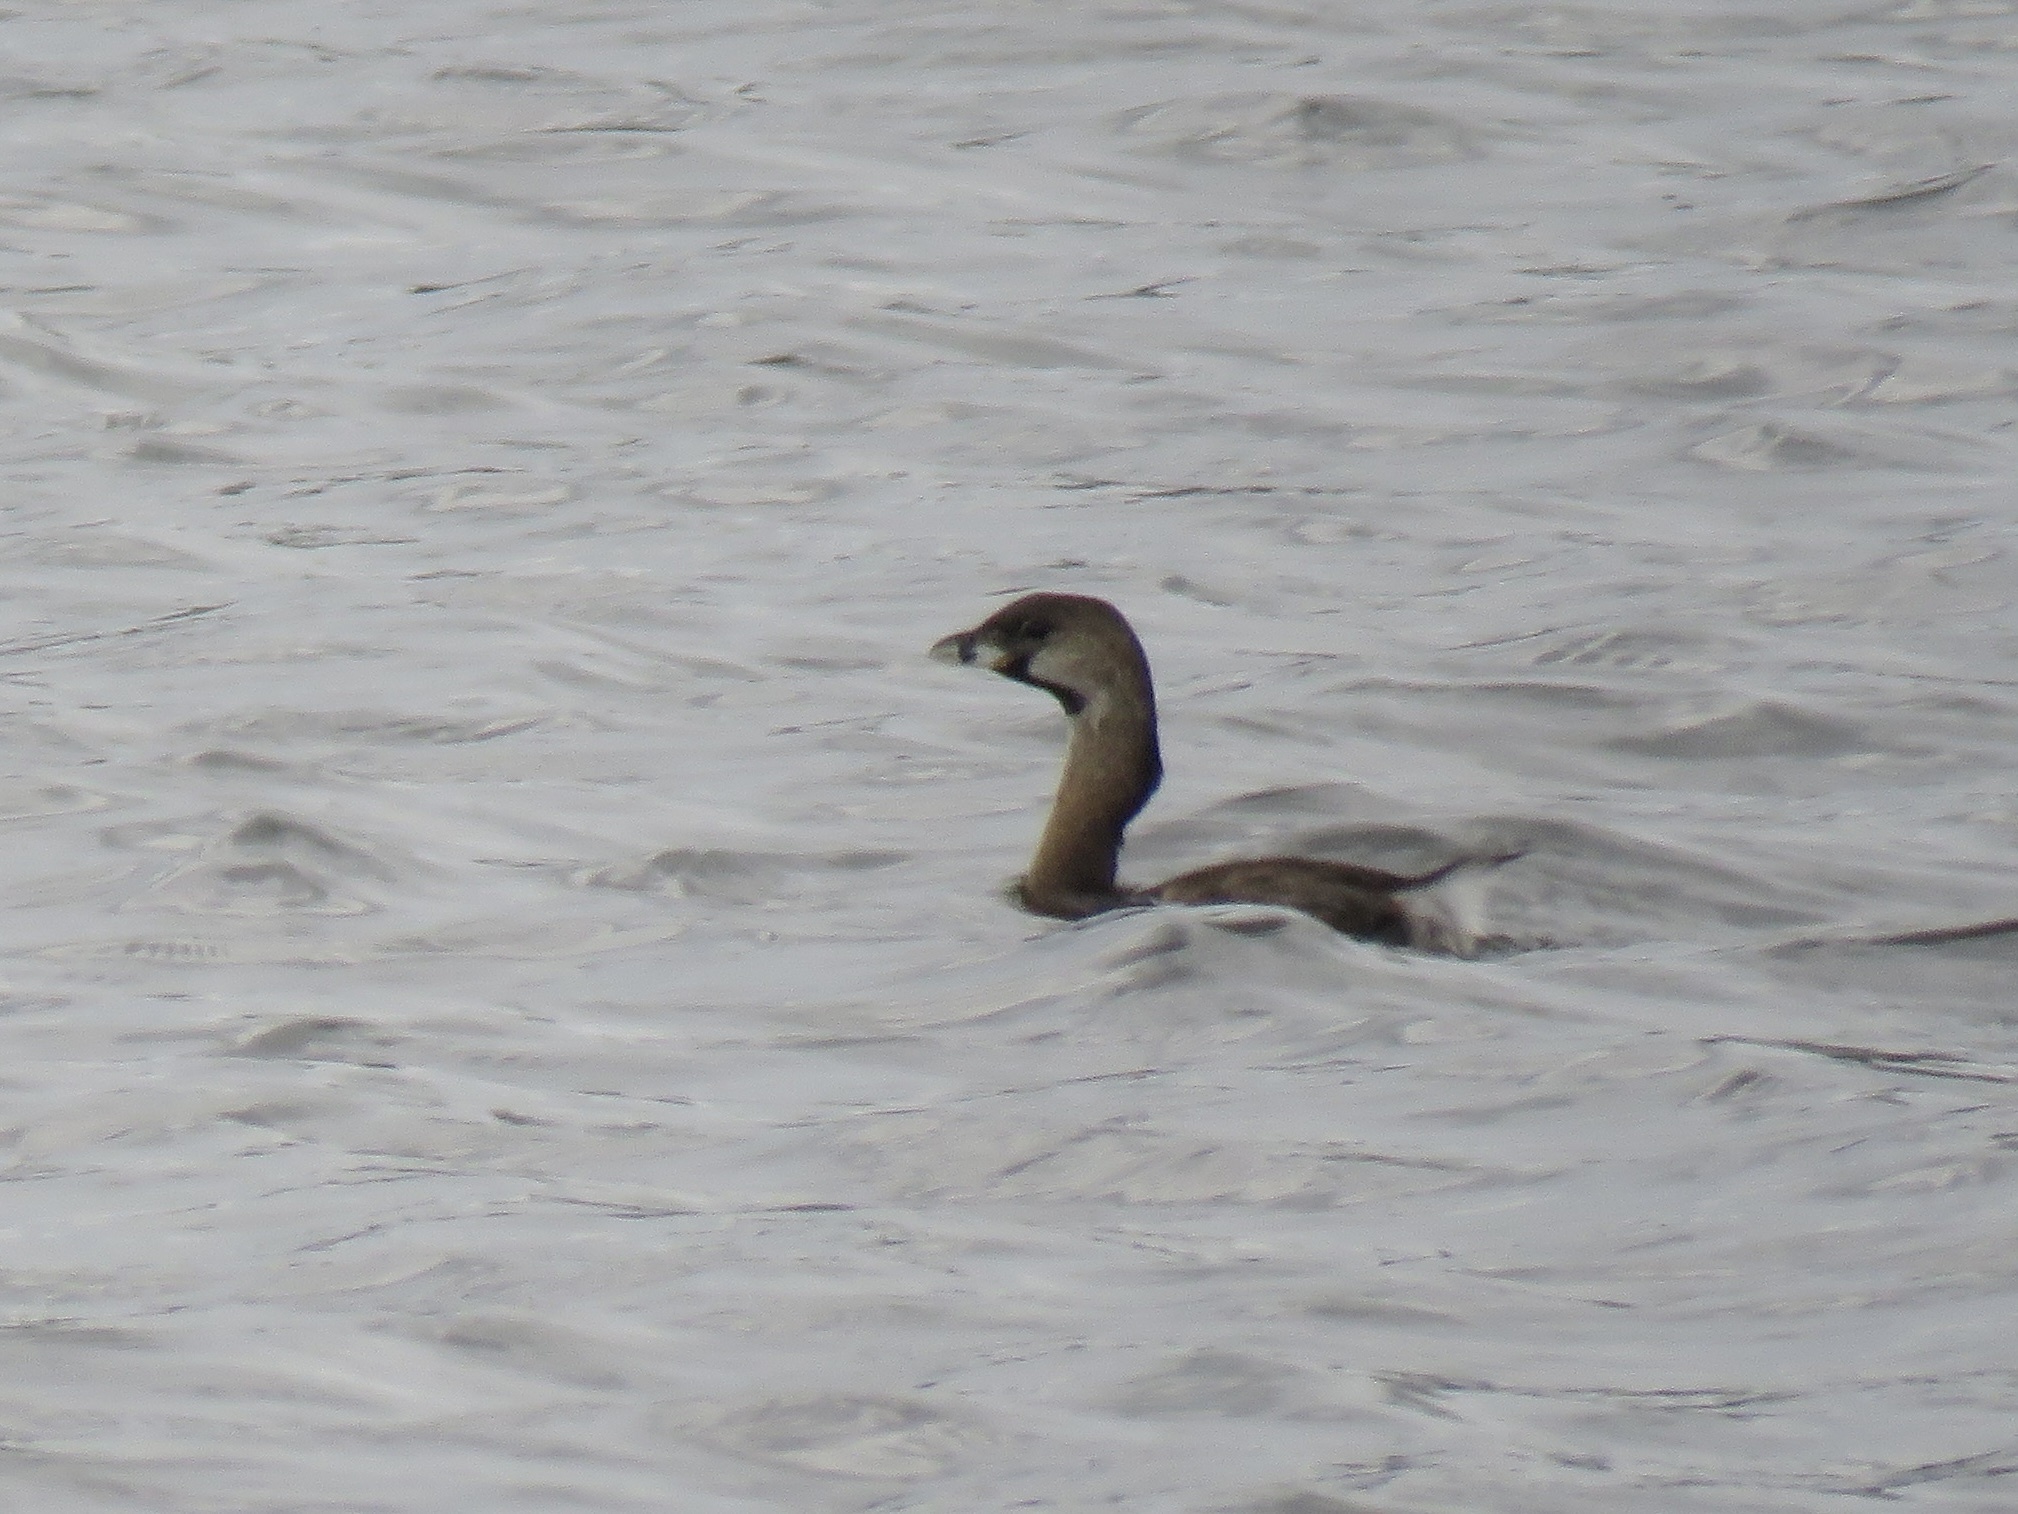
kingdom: Animalia
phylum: Chordata
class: Aves
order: Podicipediformes
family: Podicipedidae
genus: Podilymbus
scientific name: Podilymbus podiceps
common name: Pied-billed grebe
